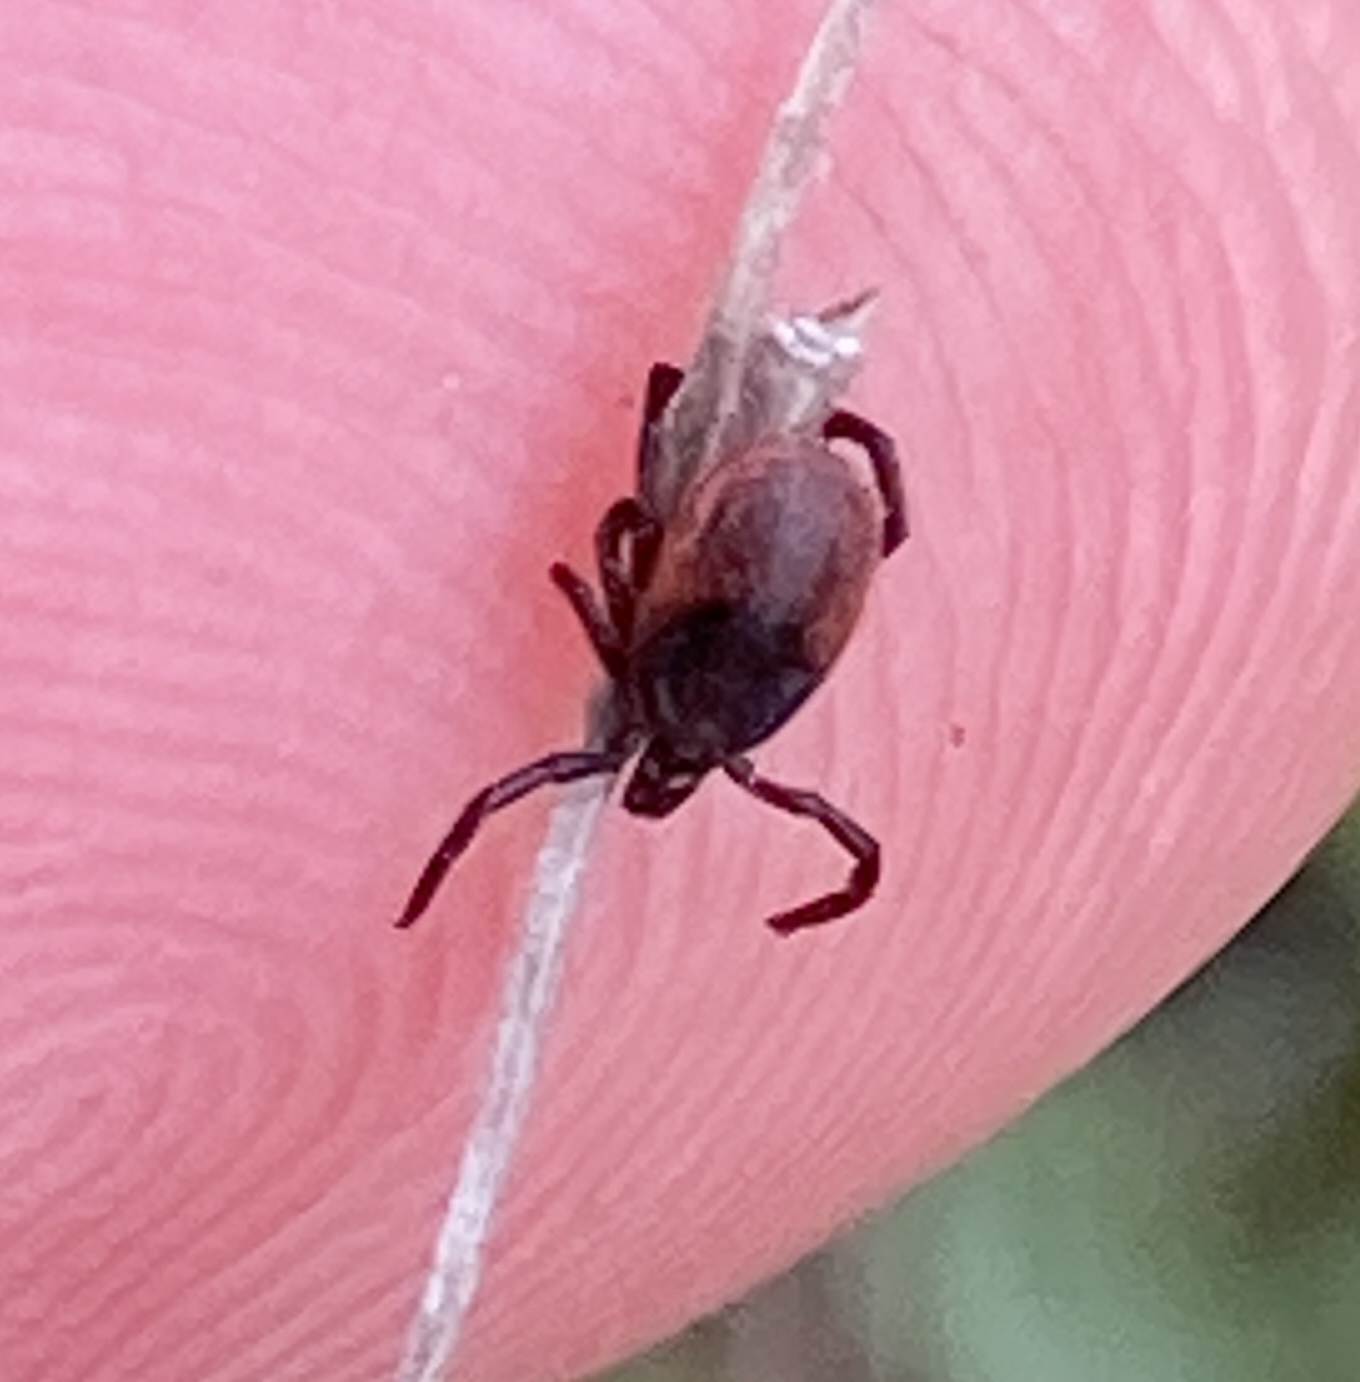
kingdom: Animalia
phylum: Arthropoda
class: Arachnida
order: Ixodida
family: Ixodidae
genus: Ixodes
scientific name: Ixodes pacificus
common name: California black-legged tick
